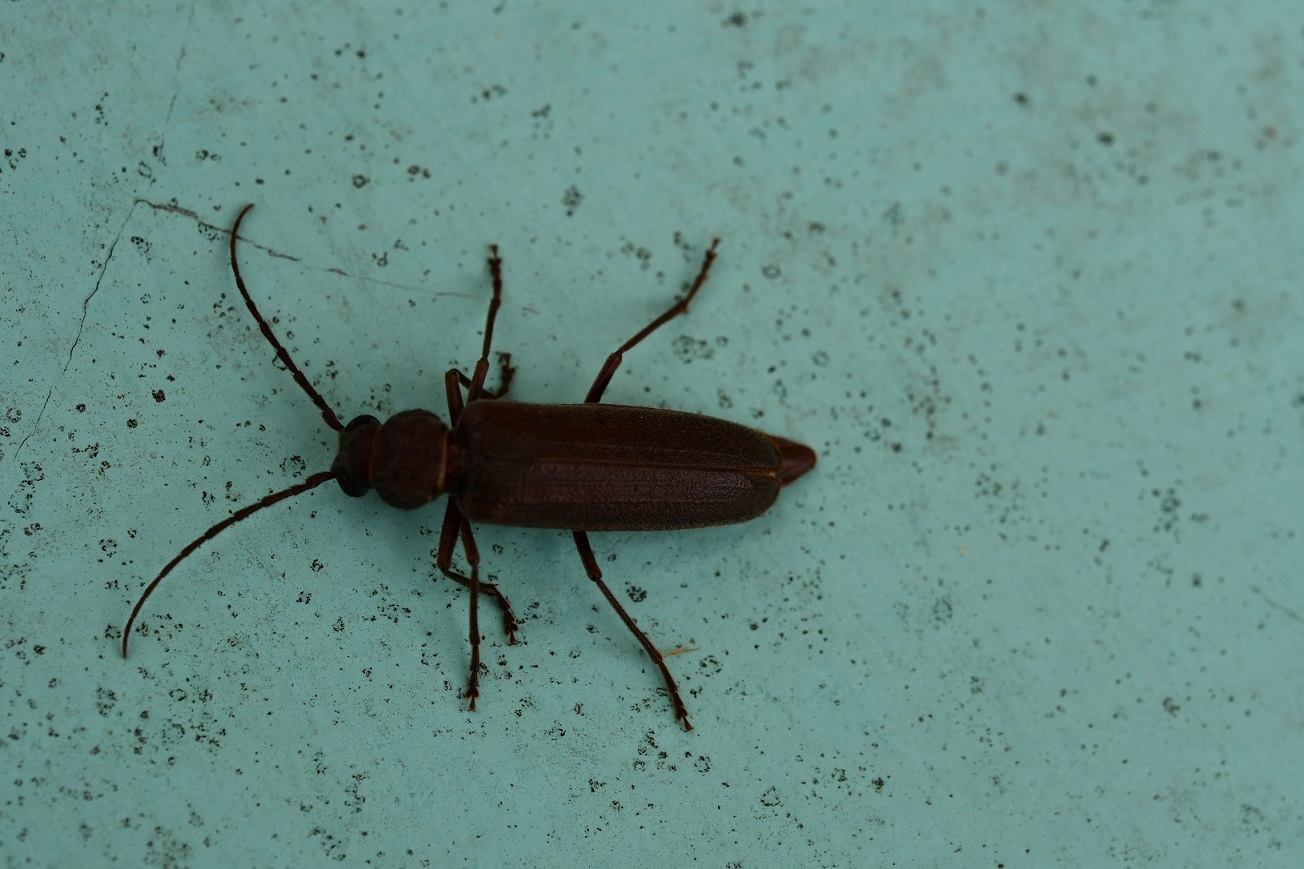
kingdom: Animalia
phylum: Arthropoda
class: Insecta
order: Coleoptera
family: Cerambycidae
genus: Arhopalus
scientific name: Arhopalus rusticus
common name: Rust pine borer
